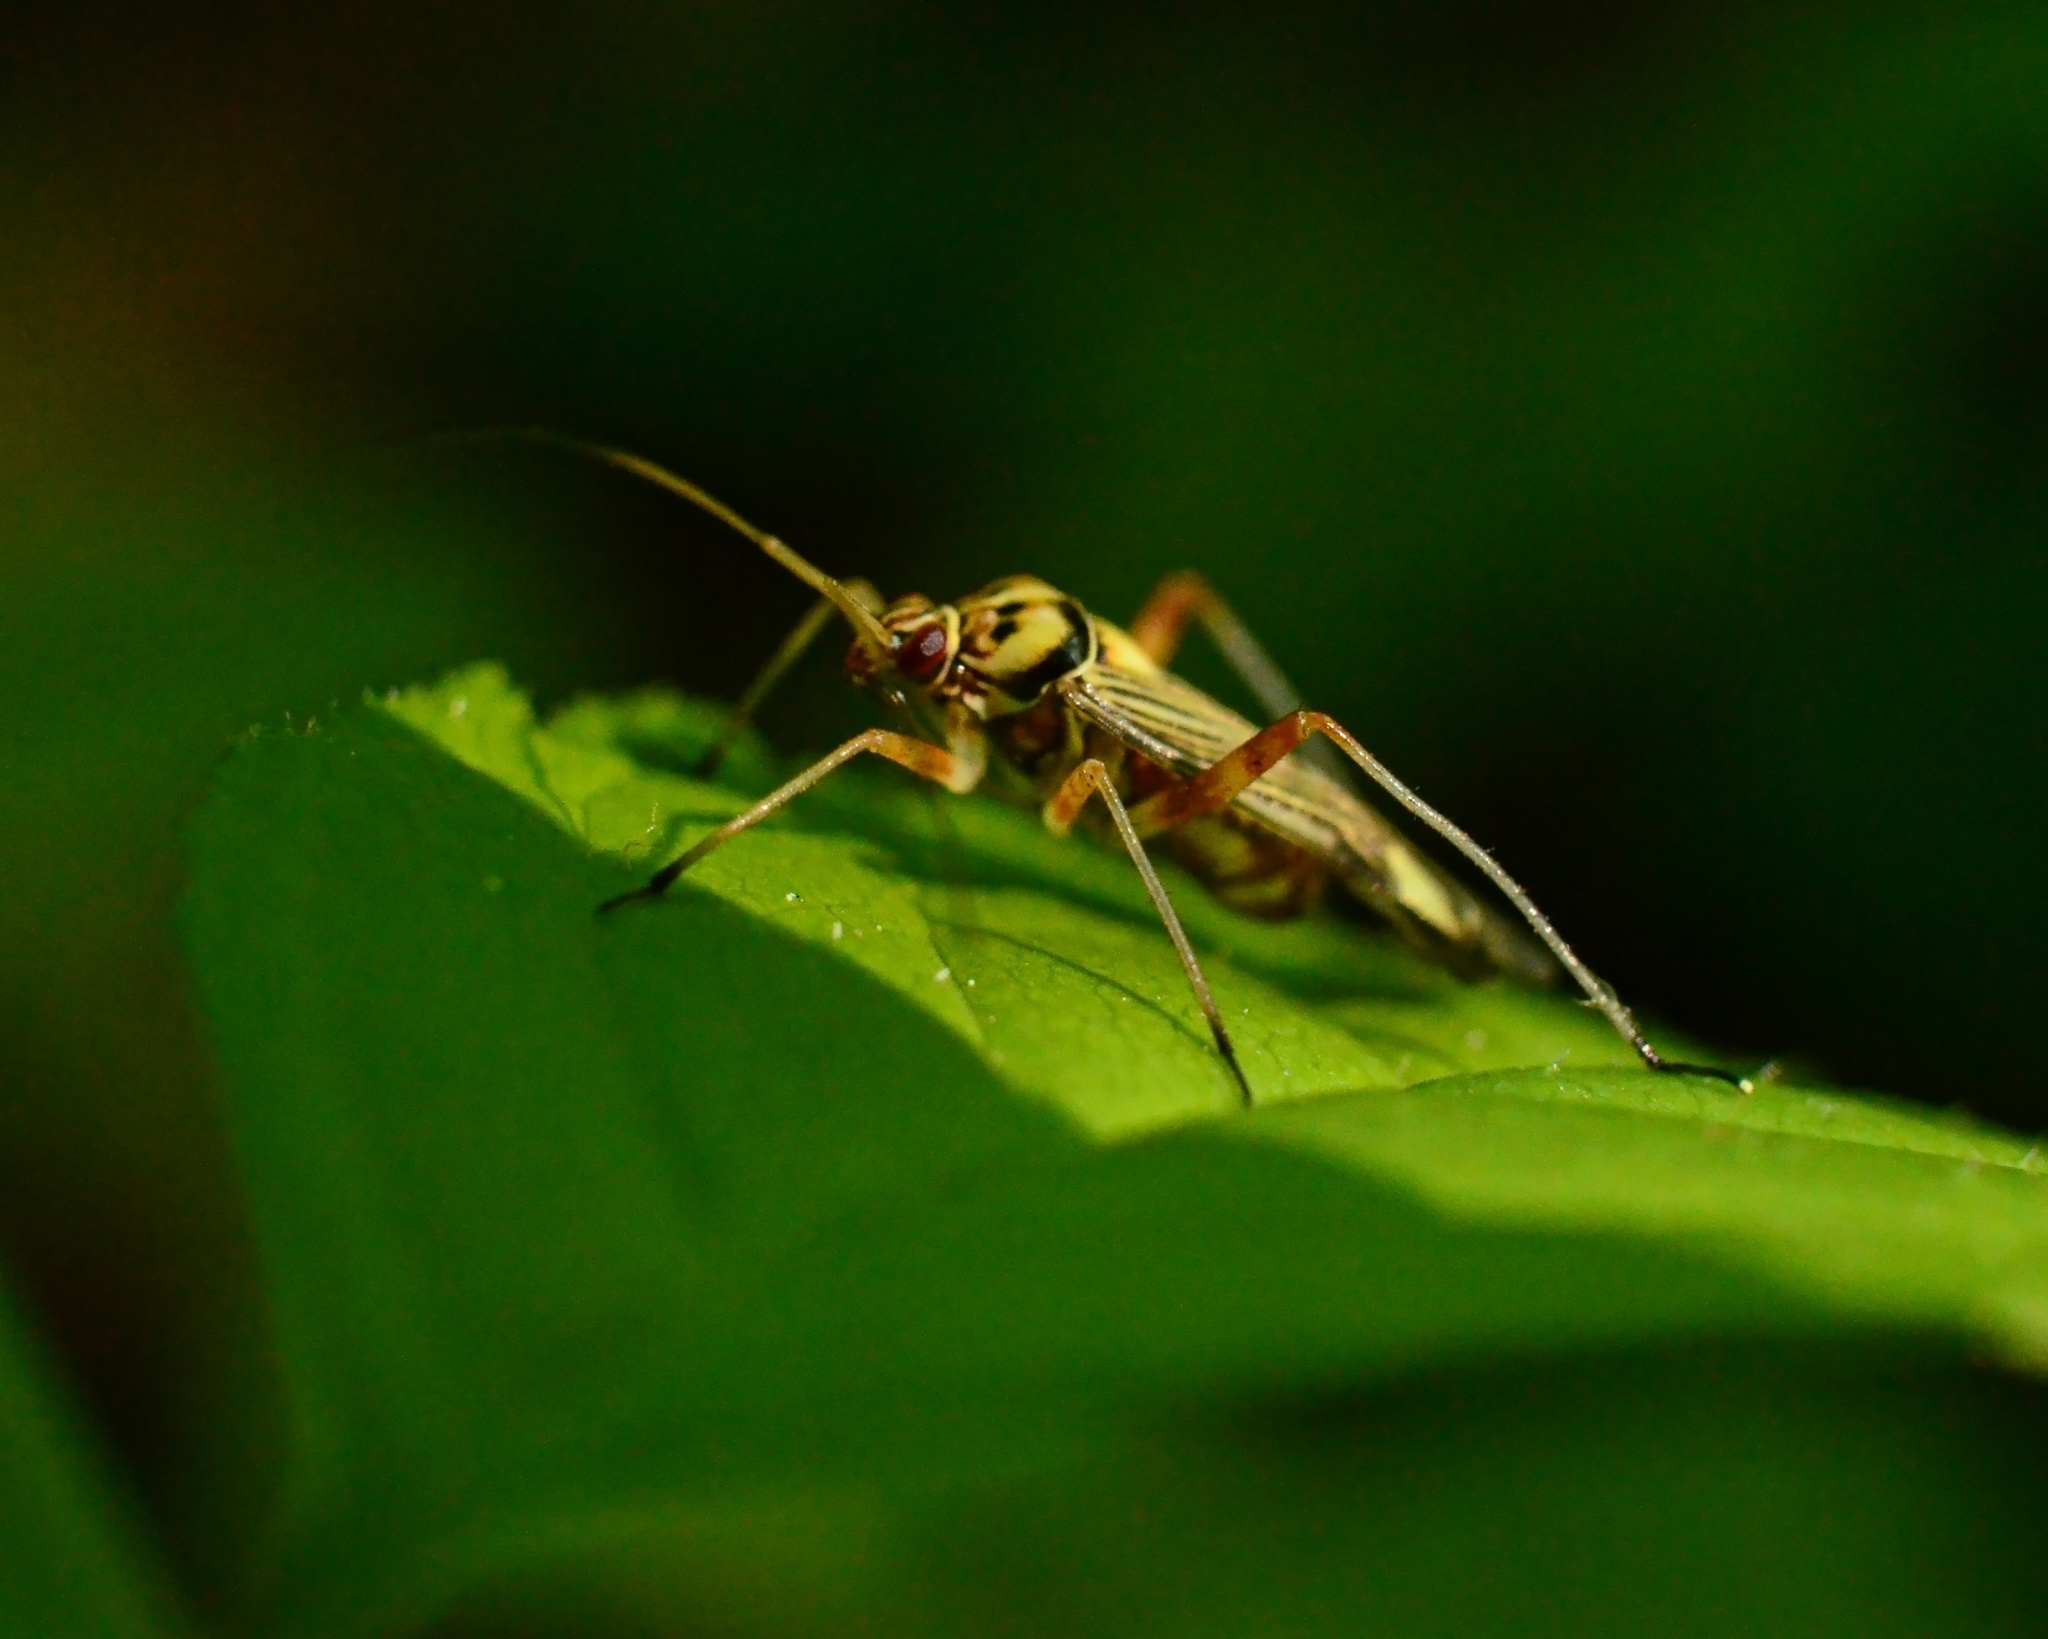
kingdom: Animalia
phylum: Arthropoda
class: Insecta
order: Hemiptera
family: Miridae
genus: Rhabdomiris
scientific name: Rhabdomiris striatellus
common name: Plant bug
